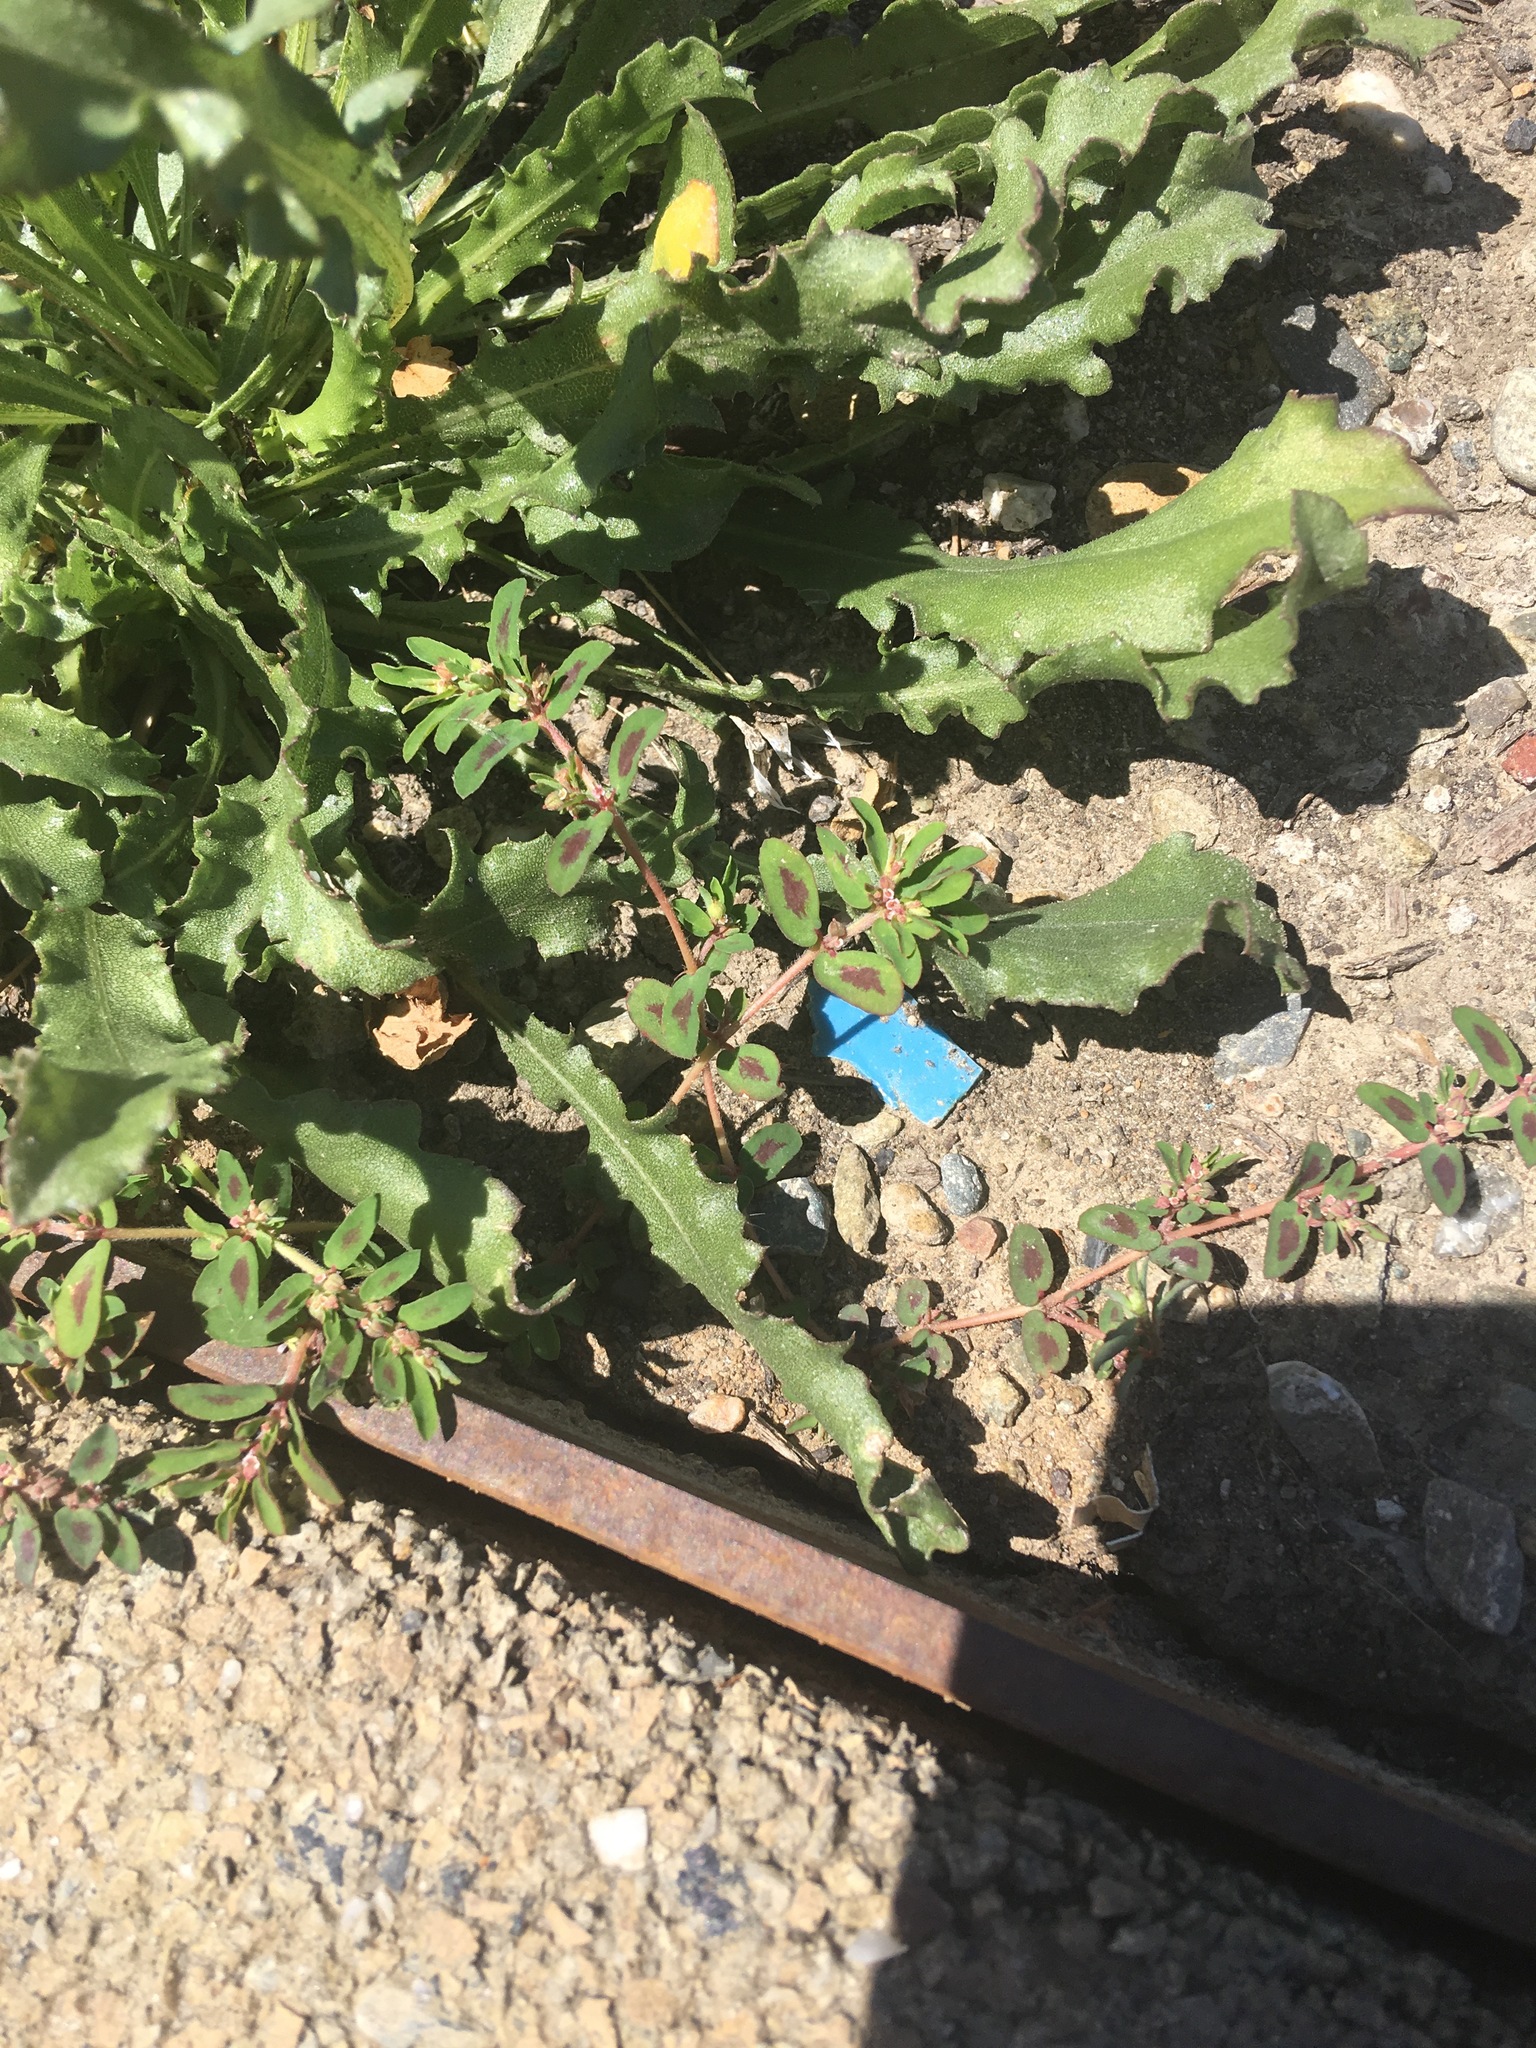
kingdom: Plantae
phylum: Tracheophyta
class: Magnoliopsida
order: Malpighiales
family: Euphorbiaceae
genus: Euphorbia
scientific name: Euphorbia maculata
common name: Spotted spurge
